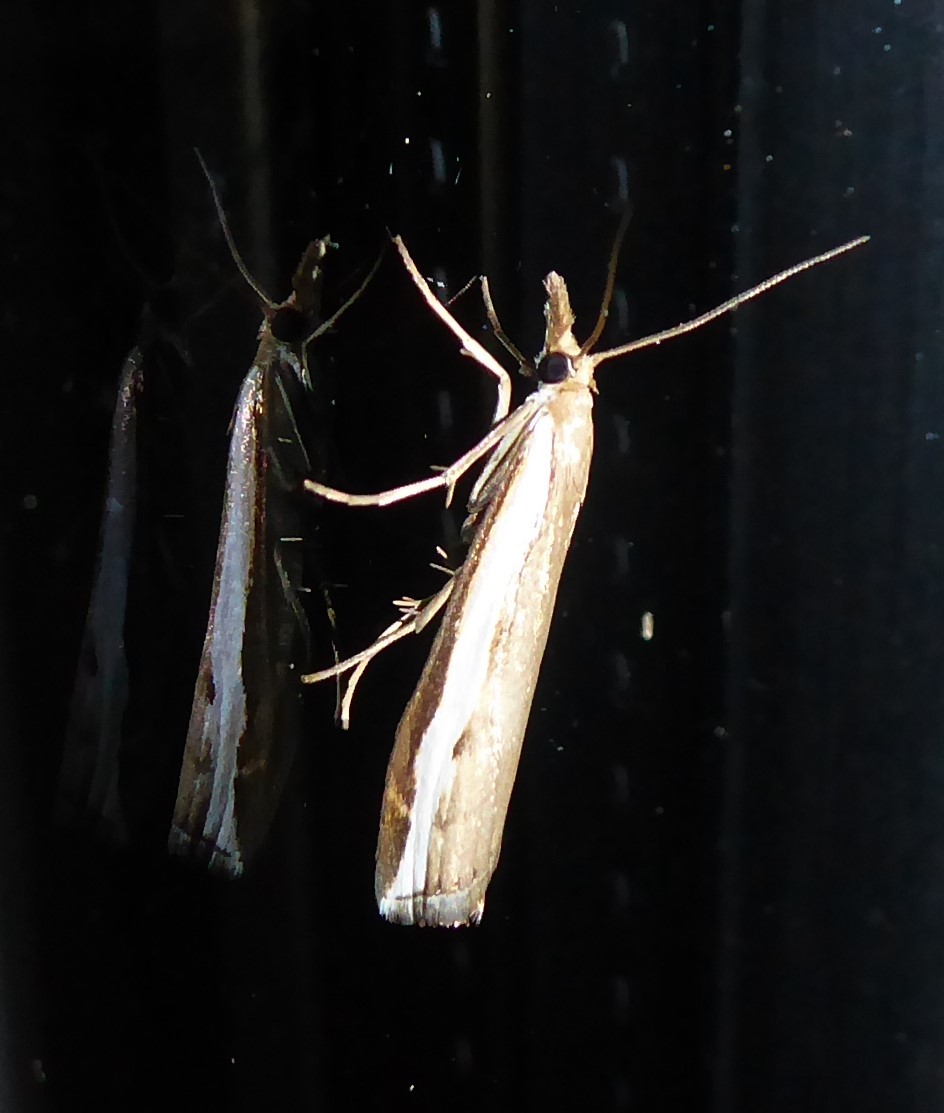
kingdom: Animalia
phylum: Arthropoda
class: Insecta
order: Lepidoptera
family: Crambidae
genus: Orocrambus
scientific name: Orocrambus flexuosellus
